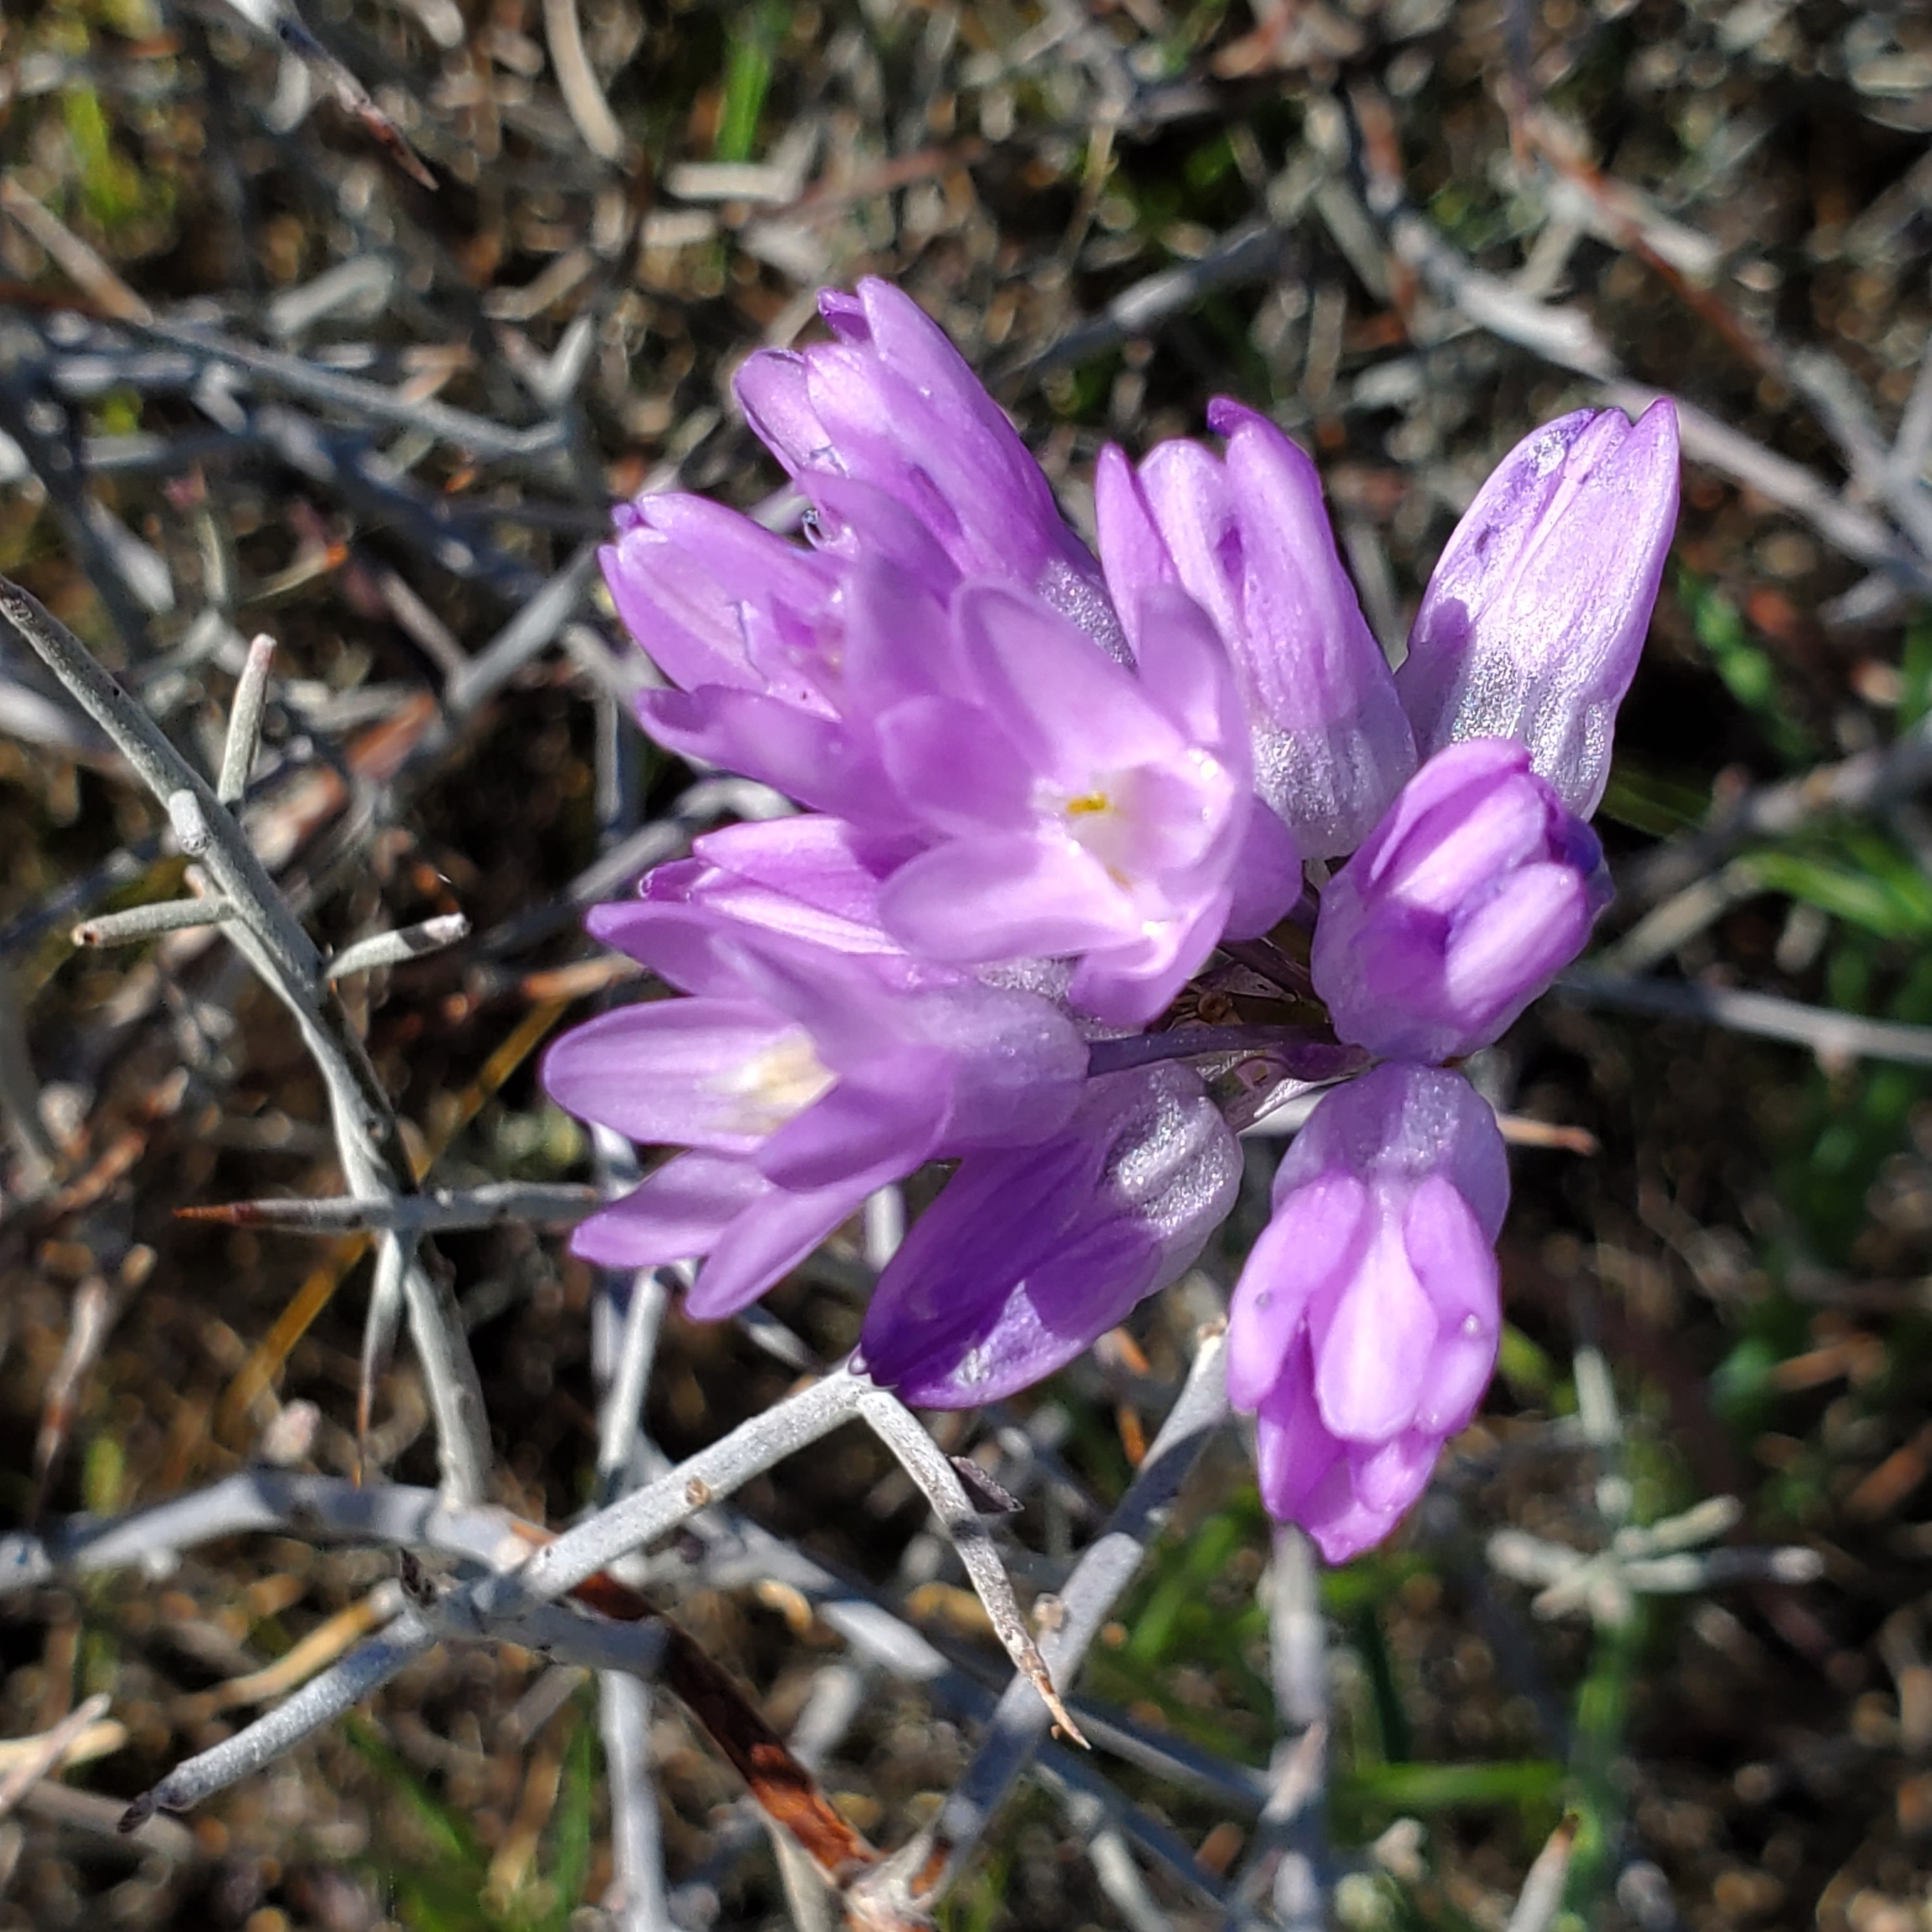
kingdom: Plantae
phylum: Tracheophyta
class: Liliopsida
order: Asparagales
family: Asparagaceae
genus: Dipterostemon
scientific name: Dipterostemon capitatus
